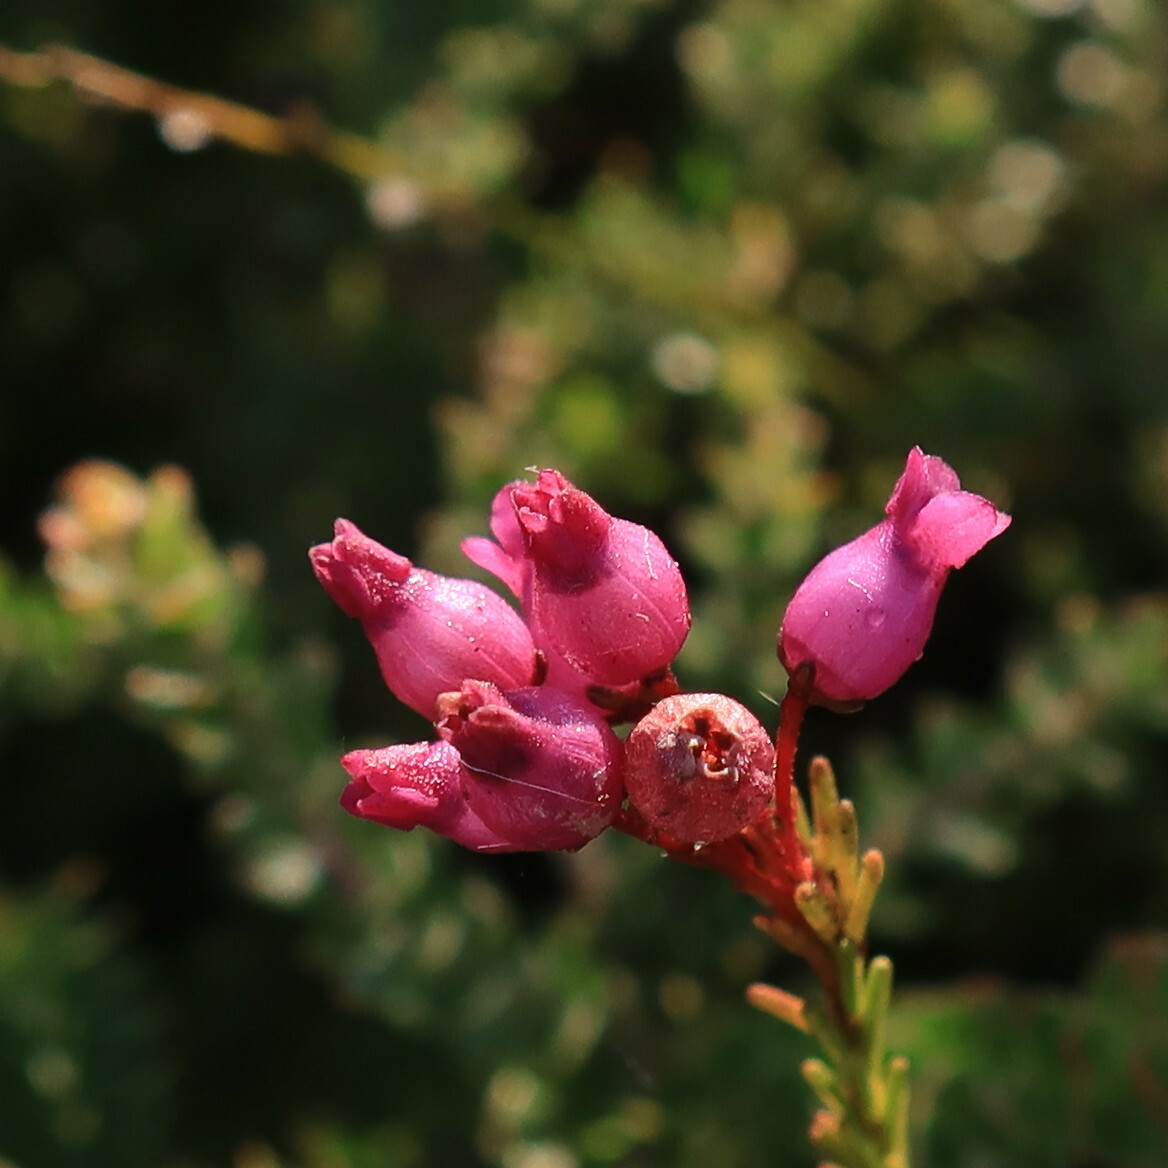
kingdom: Plantae
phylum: Tracheophyta
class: Magnoliopsida
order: Ericales
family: Ericaceae
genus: Erica
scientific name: Erica obliqua
